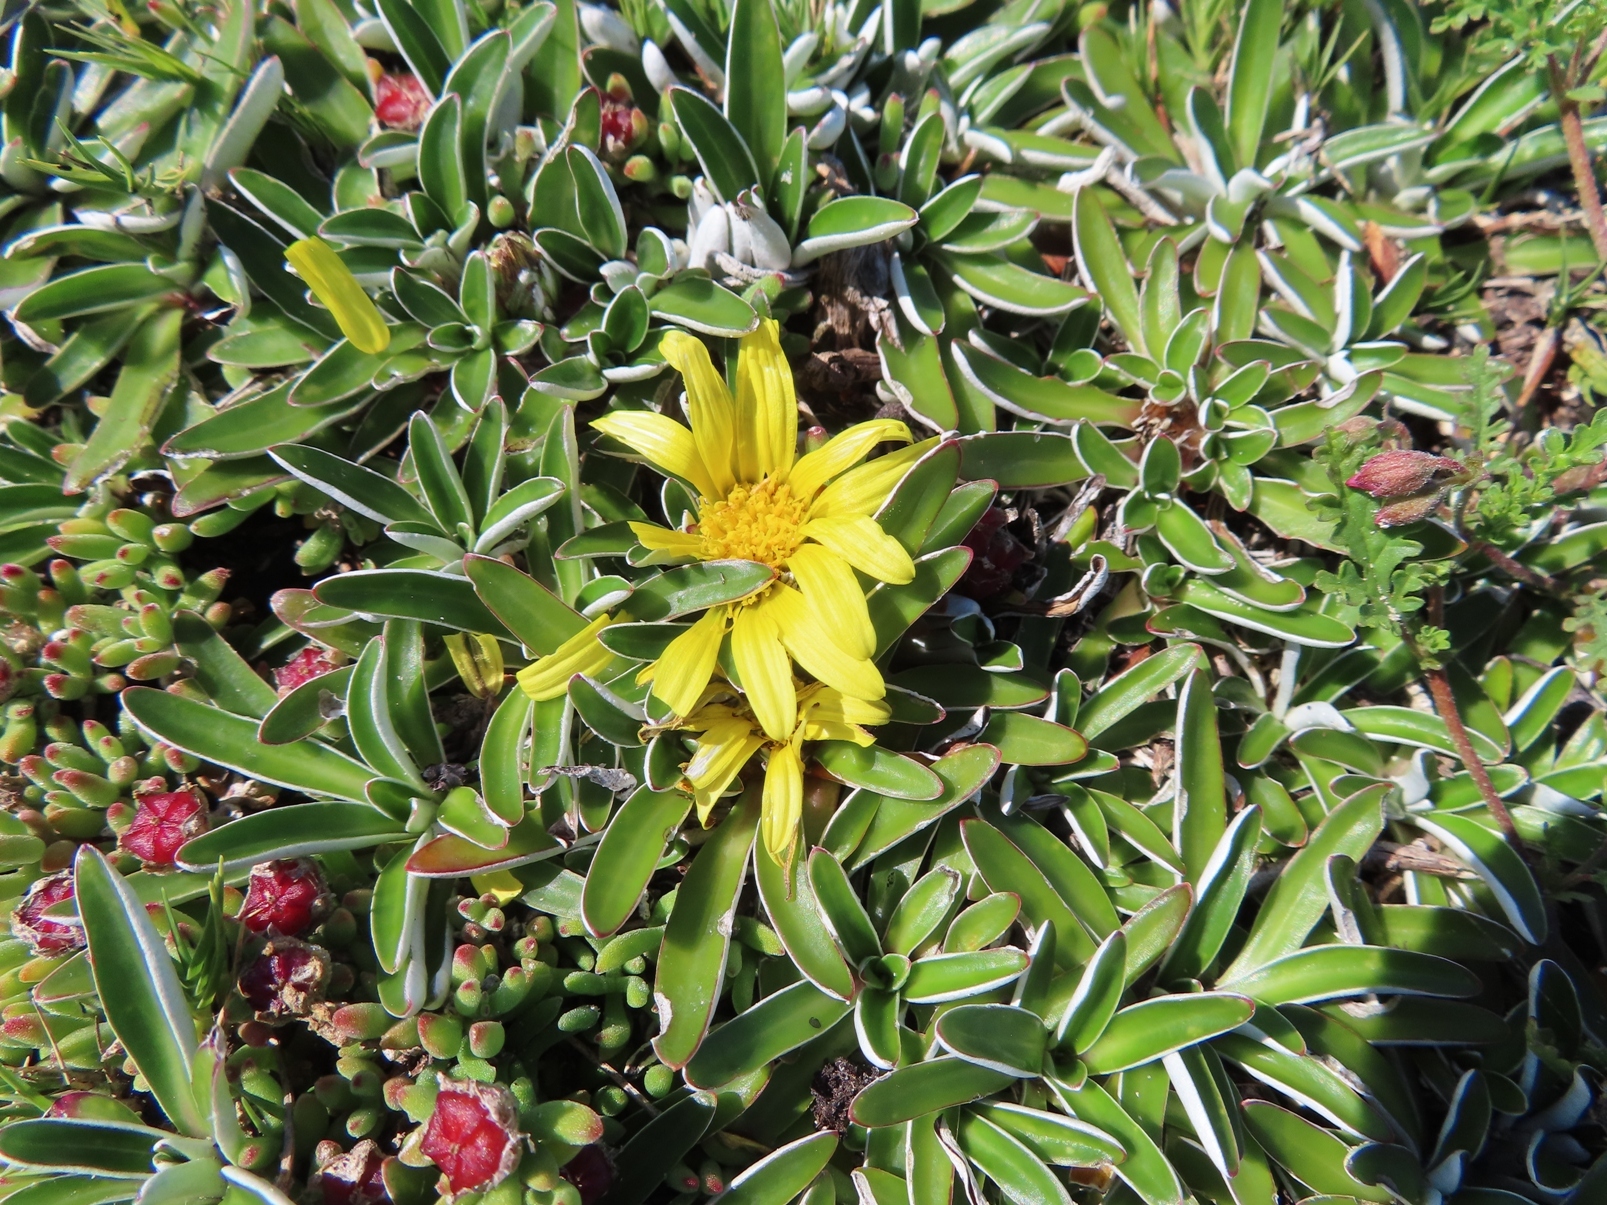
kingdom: Plantae
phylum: Tracheophyta
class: Magnoliopsida
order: Asterales
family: Asteraceae
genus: Dymondia
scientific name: Dymondia margaretae
